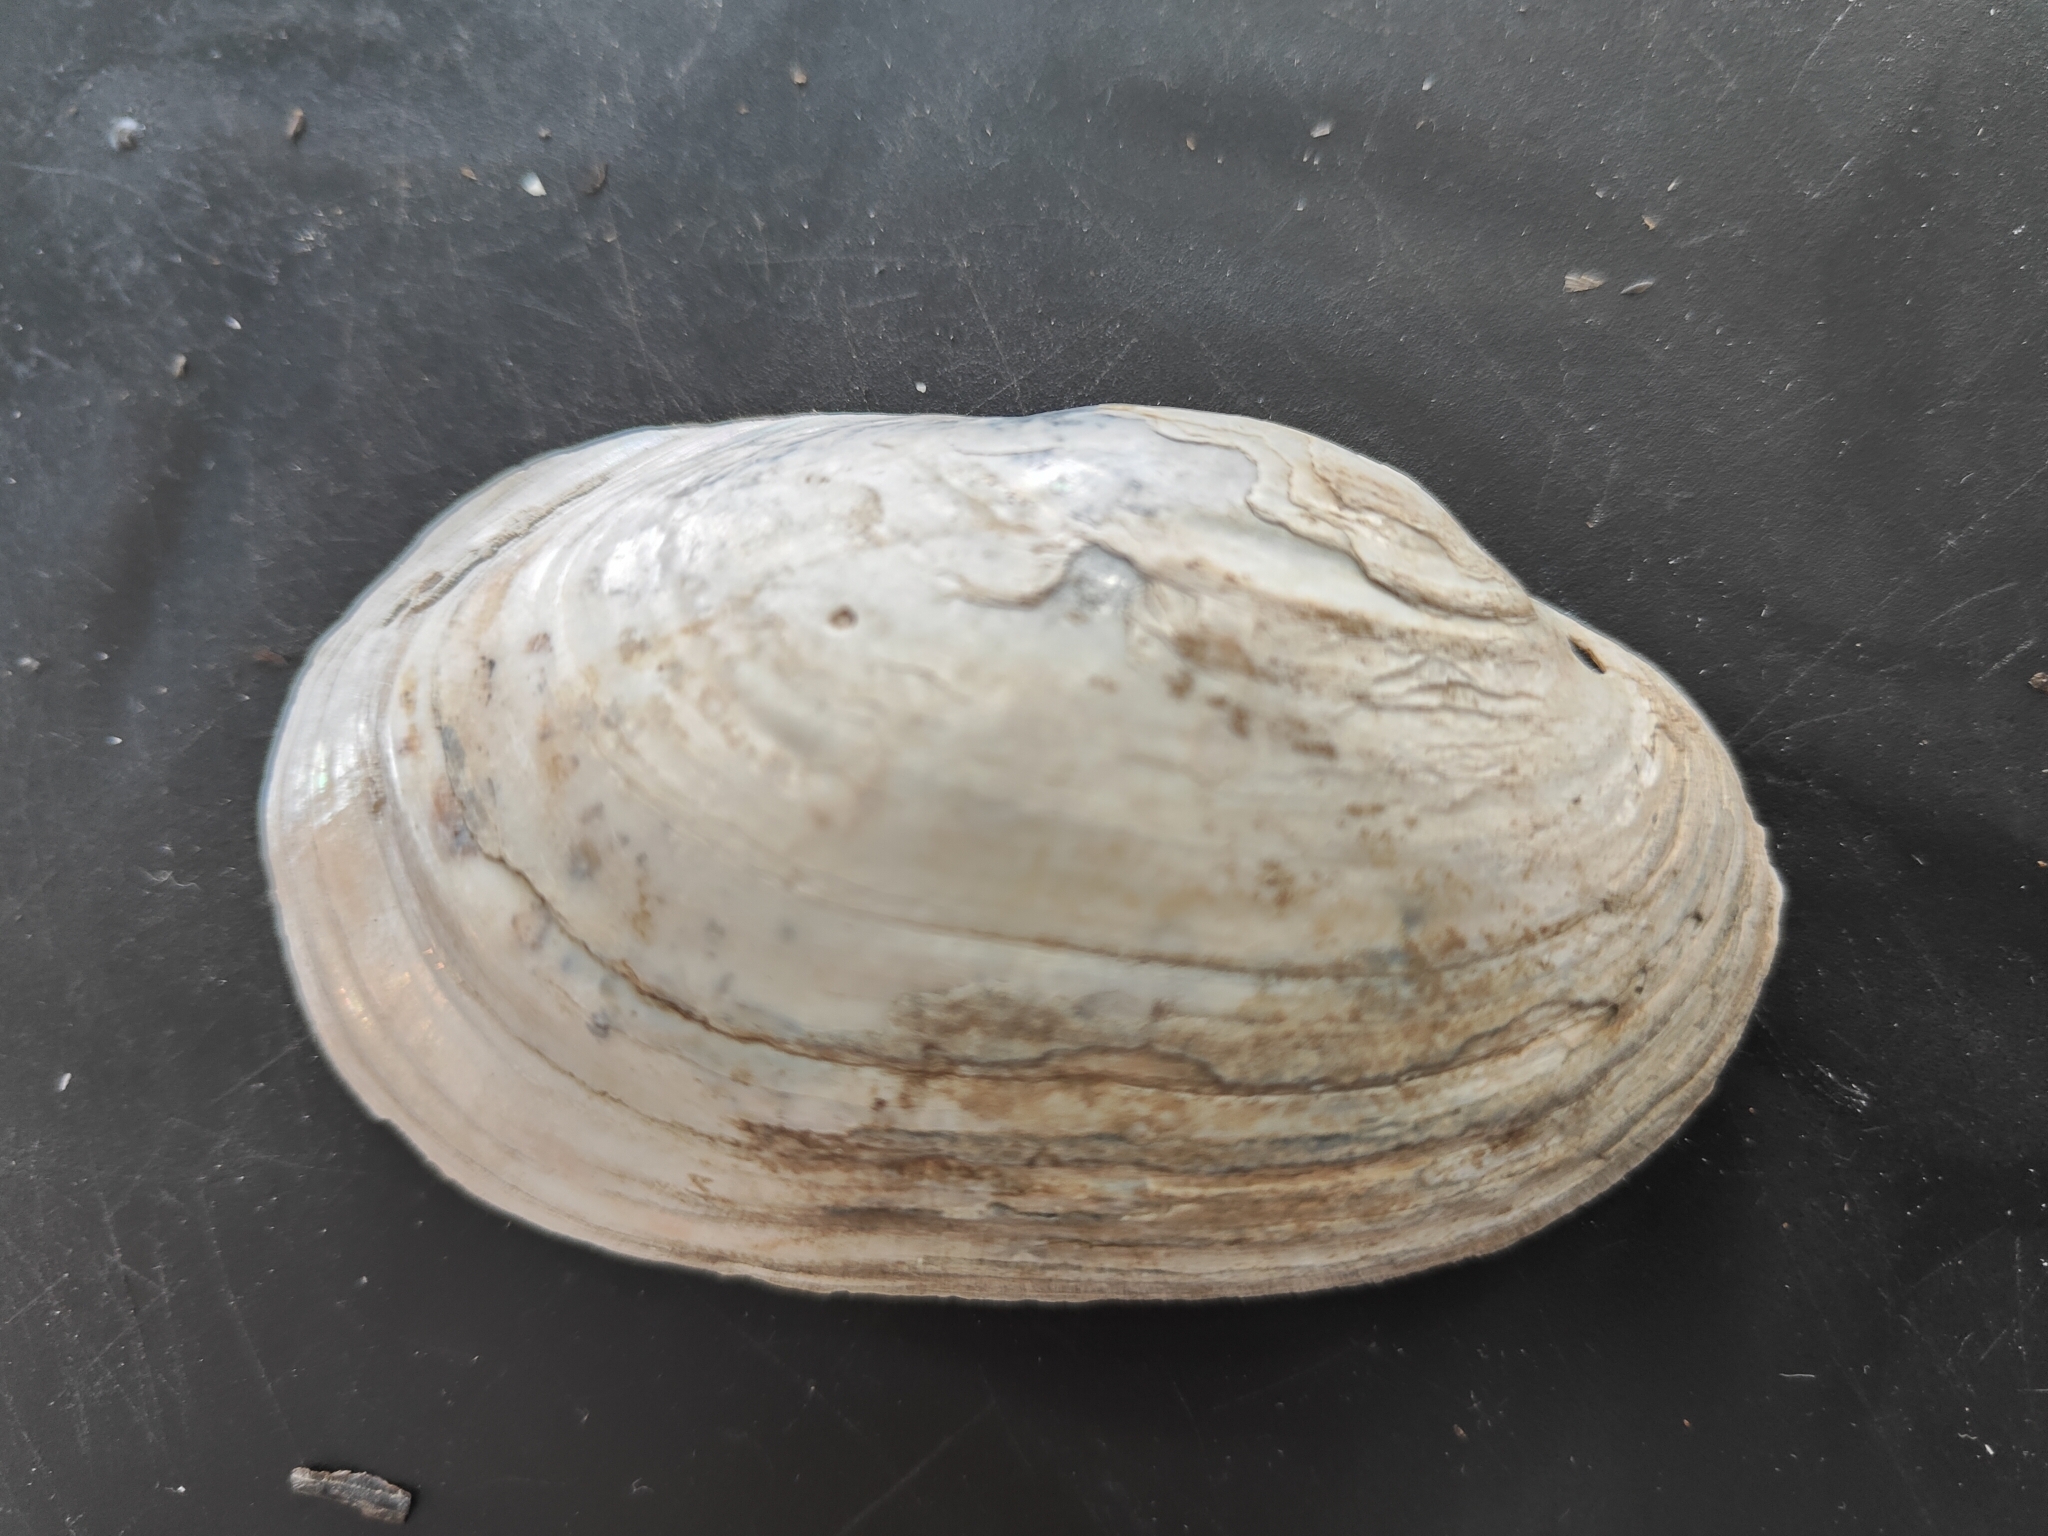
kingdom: Animalia
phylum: Mollusca
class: Bivalvia
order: Unionida
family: Unionidae
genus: Lampsilis
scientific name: Lampsilis siliquoidea
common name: Fatmucket
